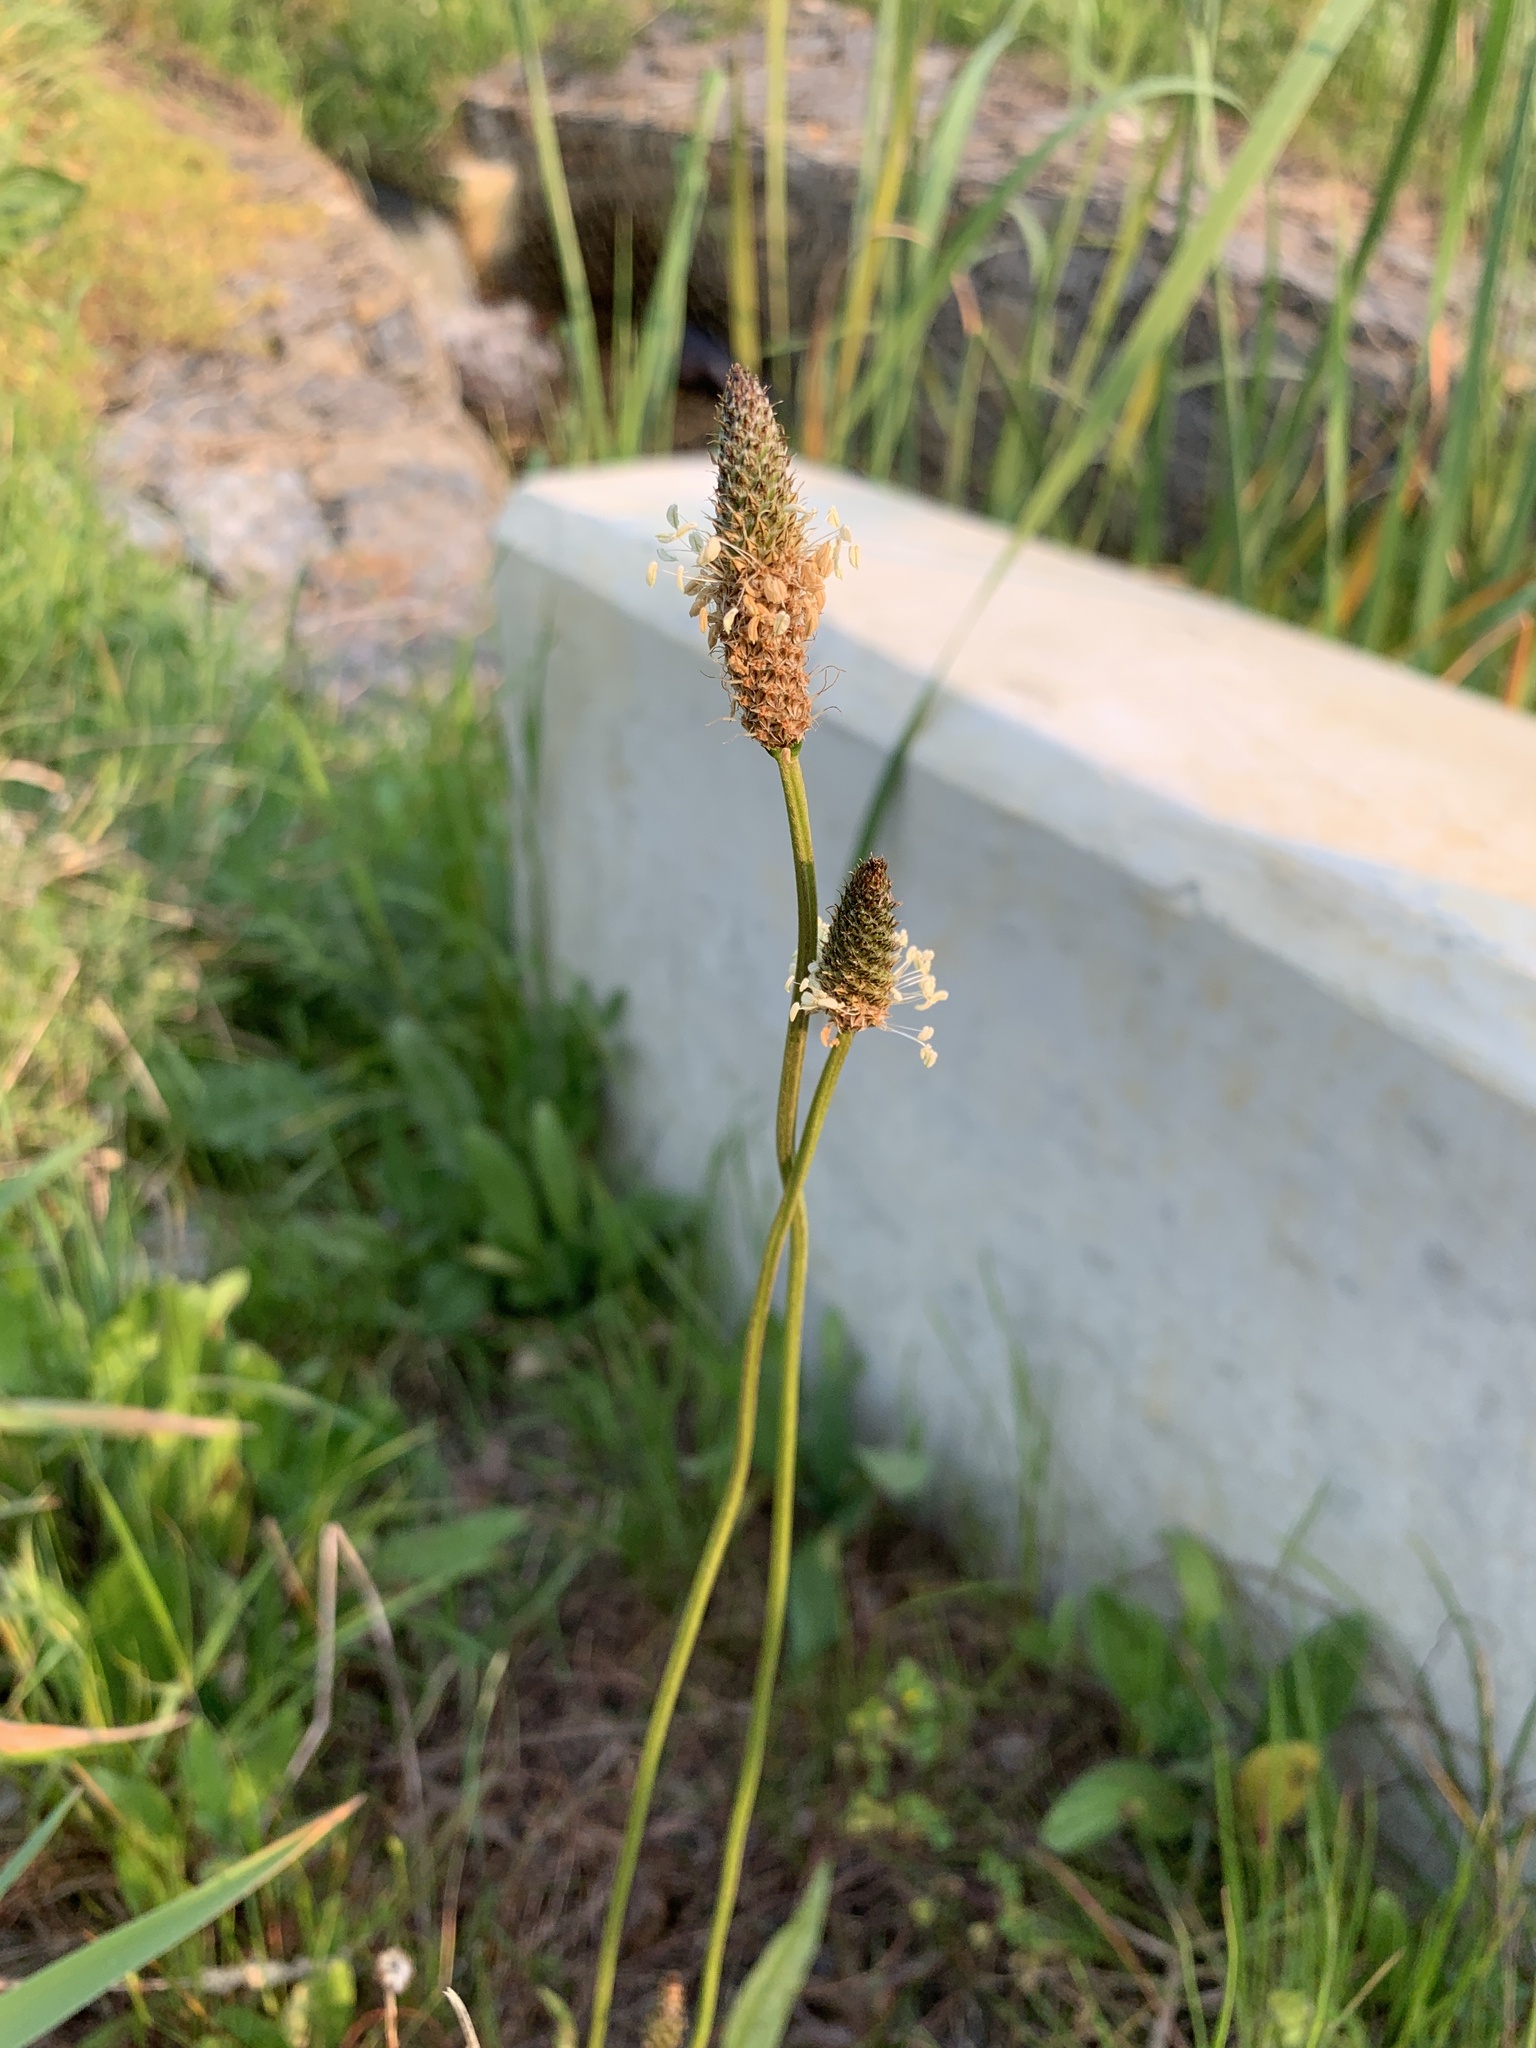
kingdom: Plantae
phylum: Tracheophyta
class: Magnoliopsida
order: Lamiales
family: Plantaginaceae
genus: Plantago
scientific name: Plantago lanceolata
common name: Ribwort plantain
